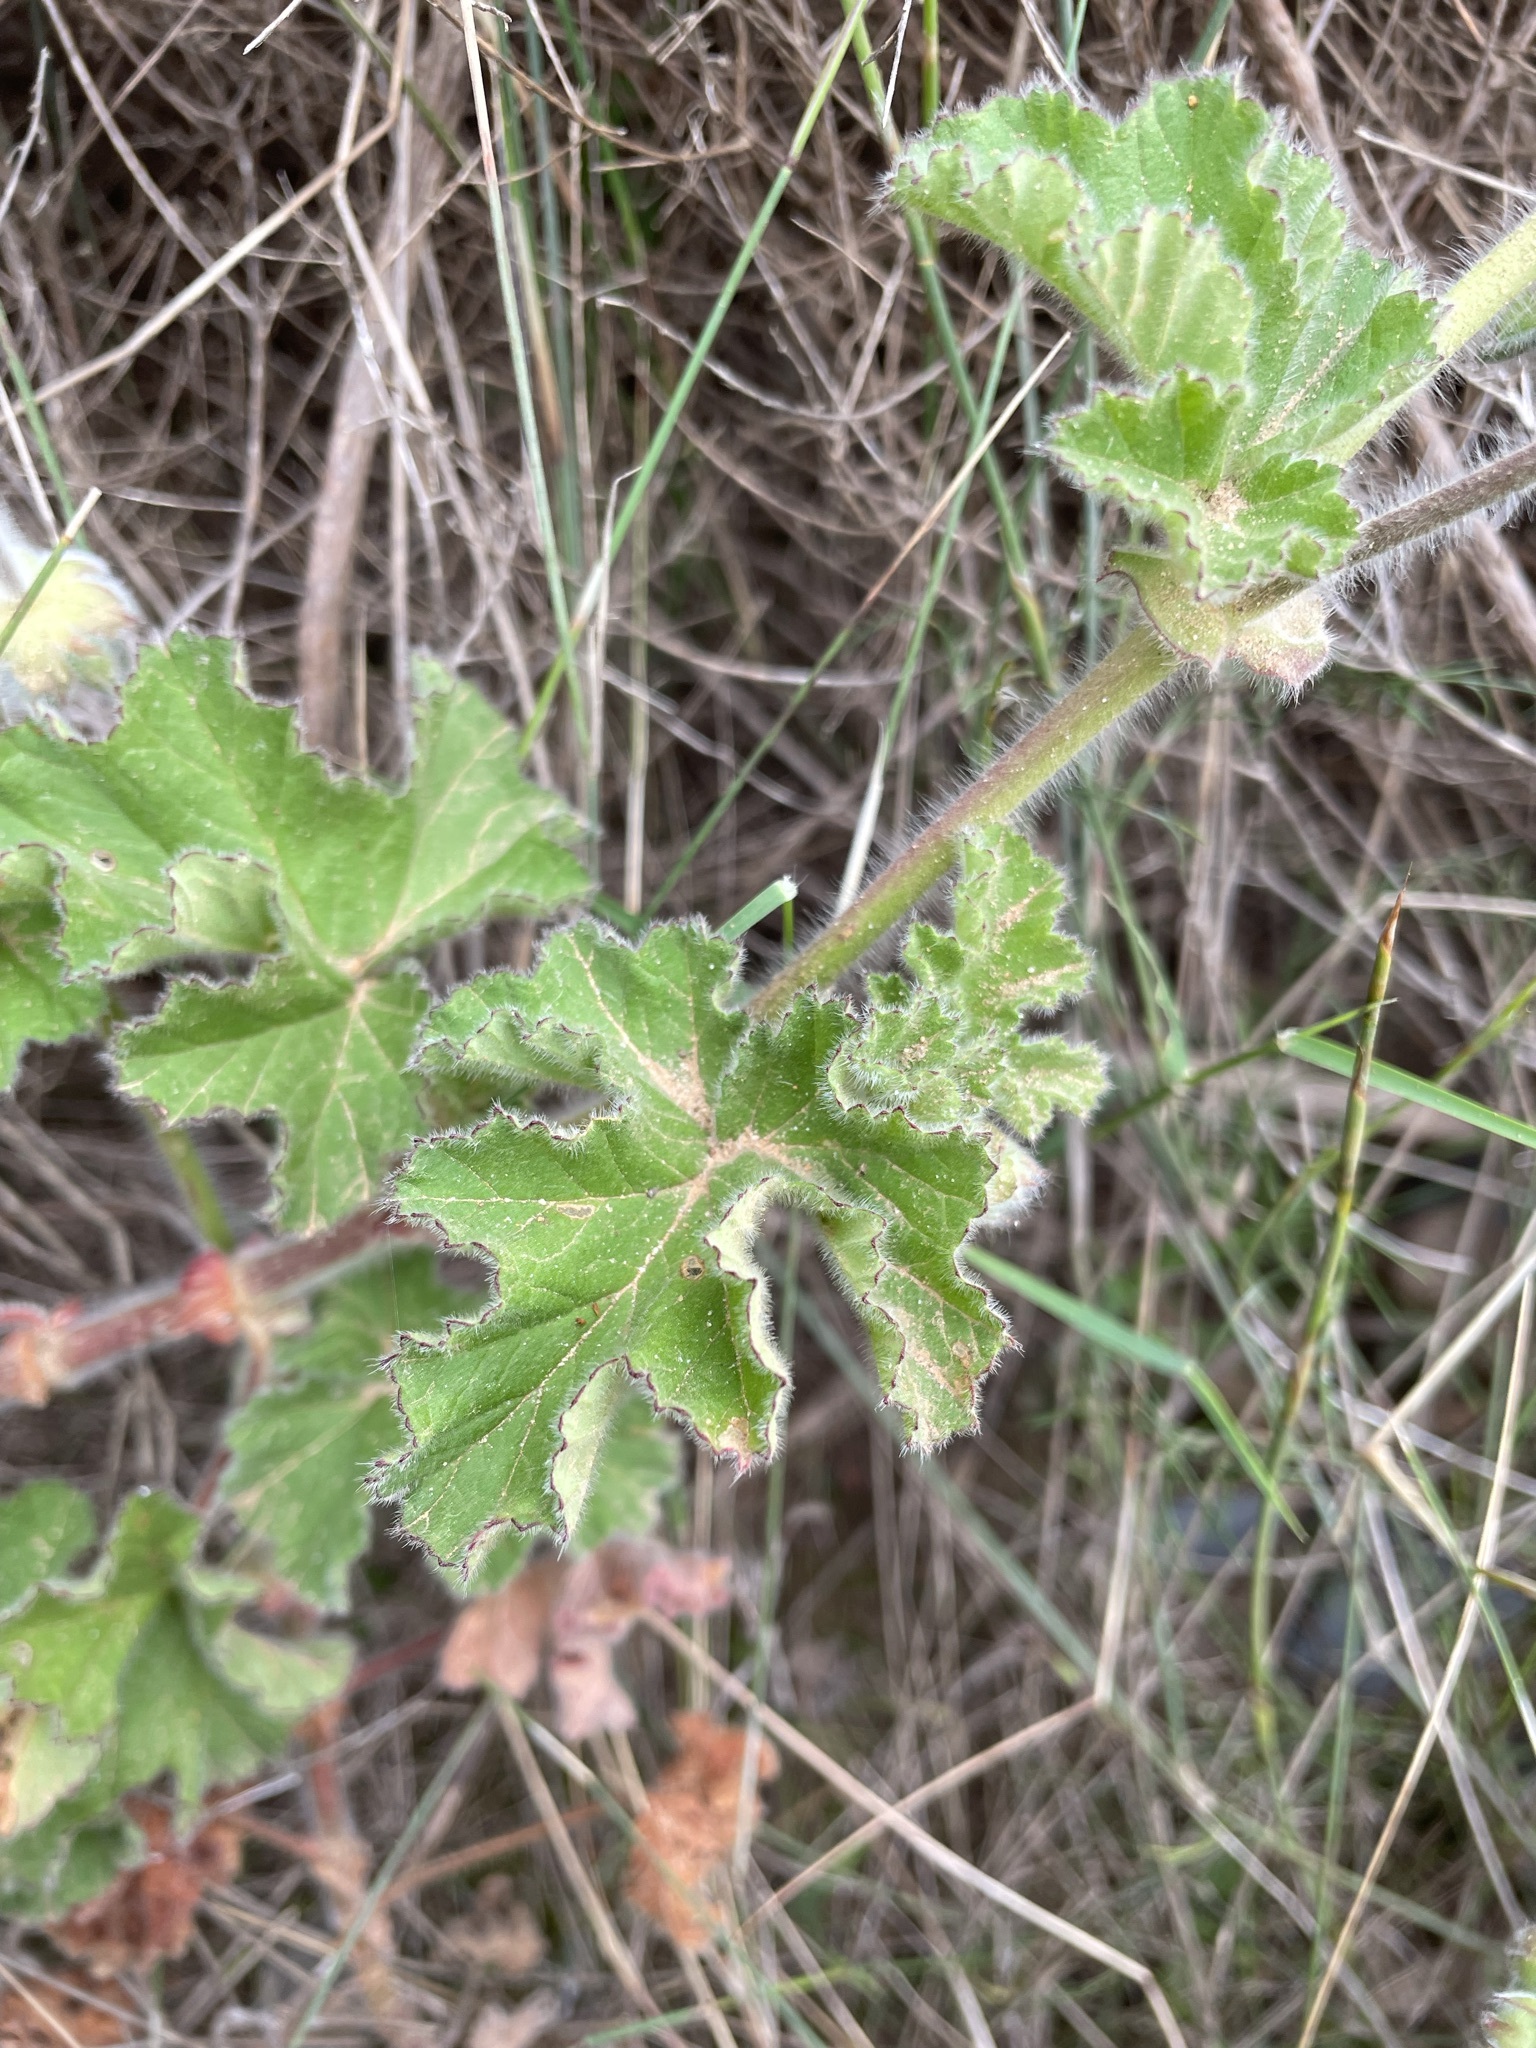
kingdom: Plantae
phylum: Tracheophyta
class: Magnoliopsida
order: Geraniales
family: Geraniaceae
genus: Pelargonium
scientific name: Pelargonium capitatum
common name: Rose scented geranium
